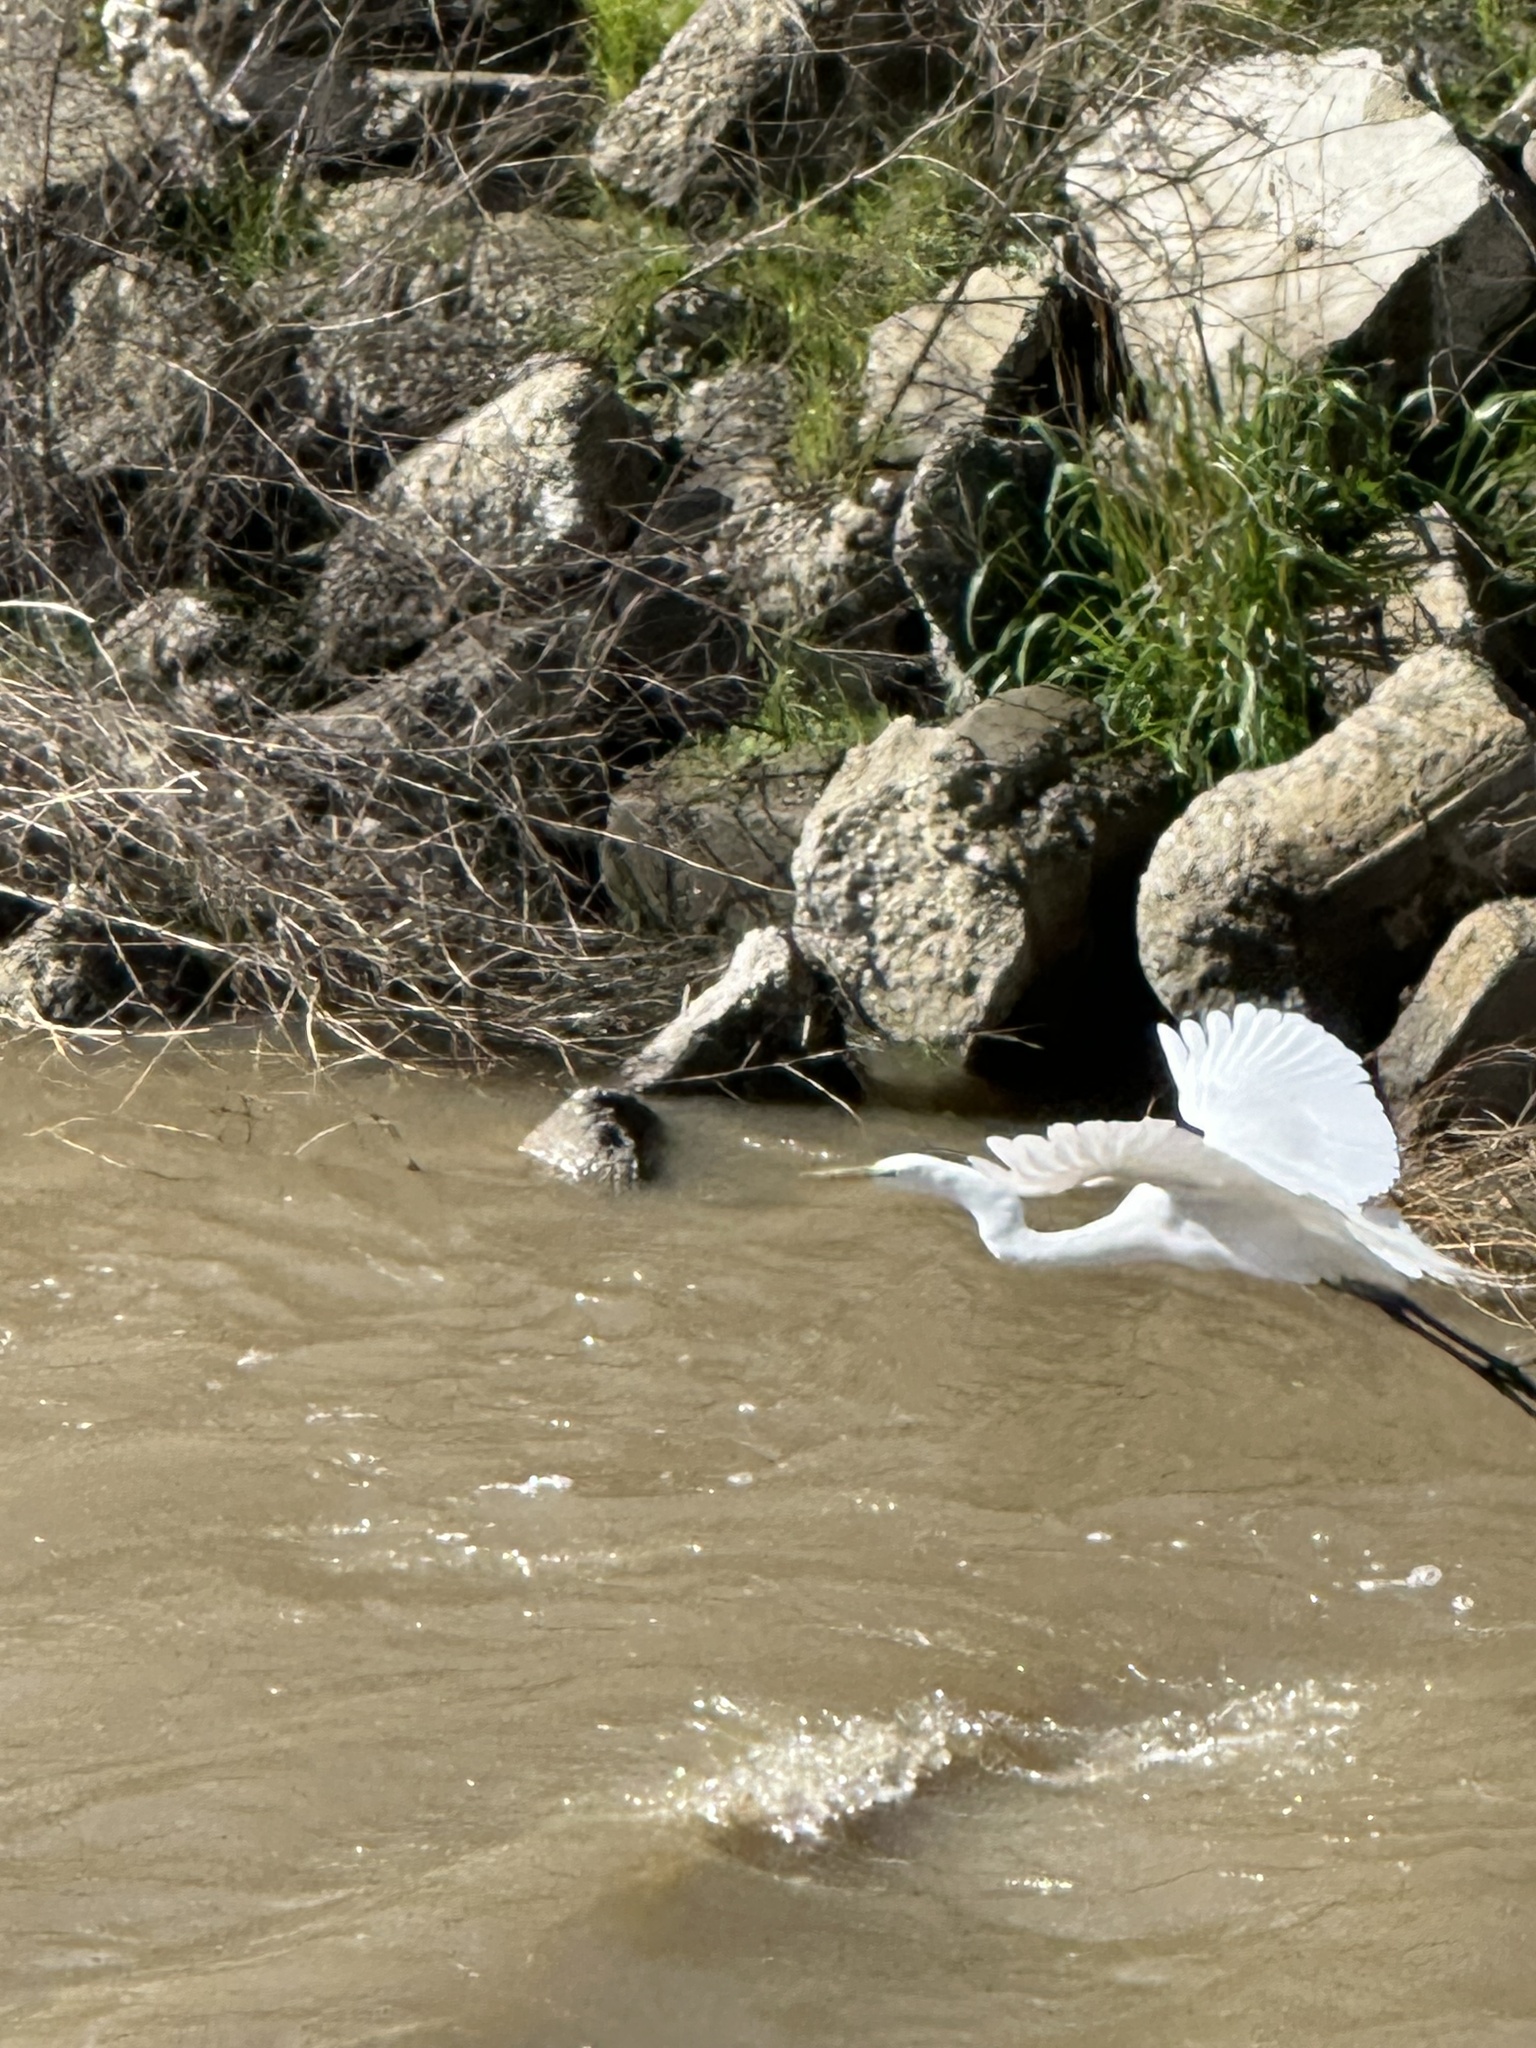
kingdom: Animalia
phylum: Chordata
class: Aves
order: Pelecaniformes
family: Ardeidae
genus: Ardea
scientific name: Ardea alba
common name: Great egret
